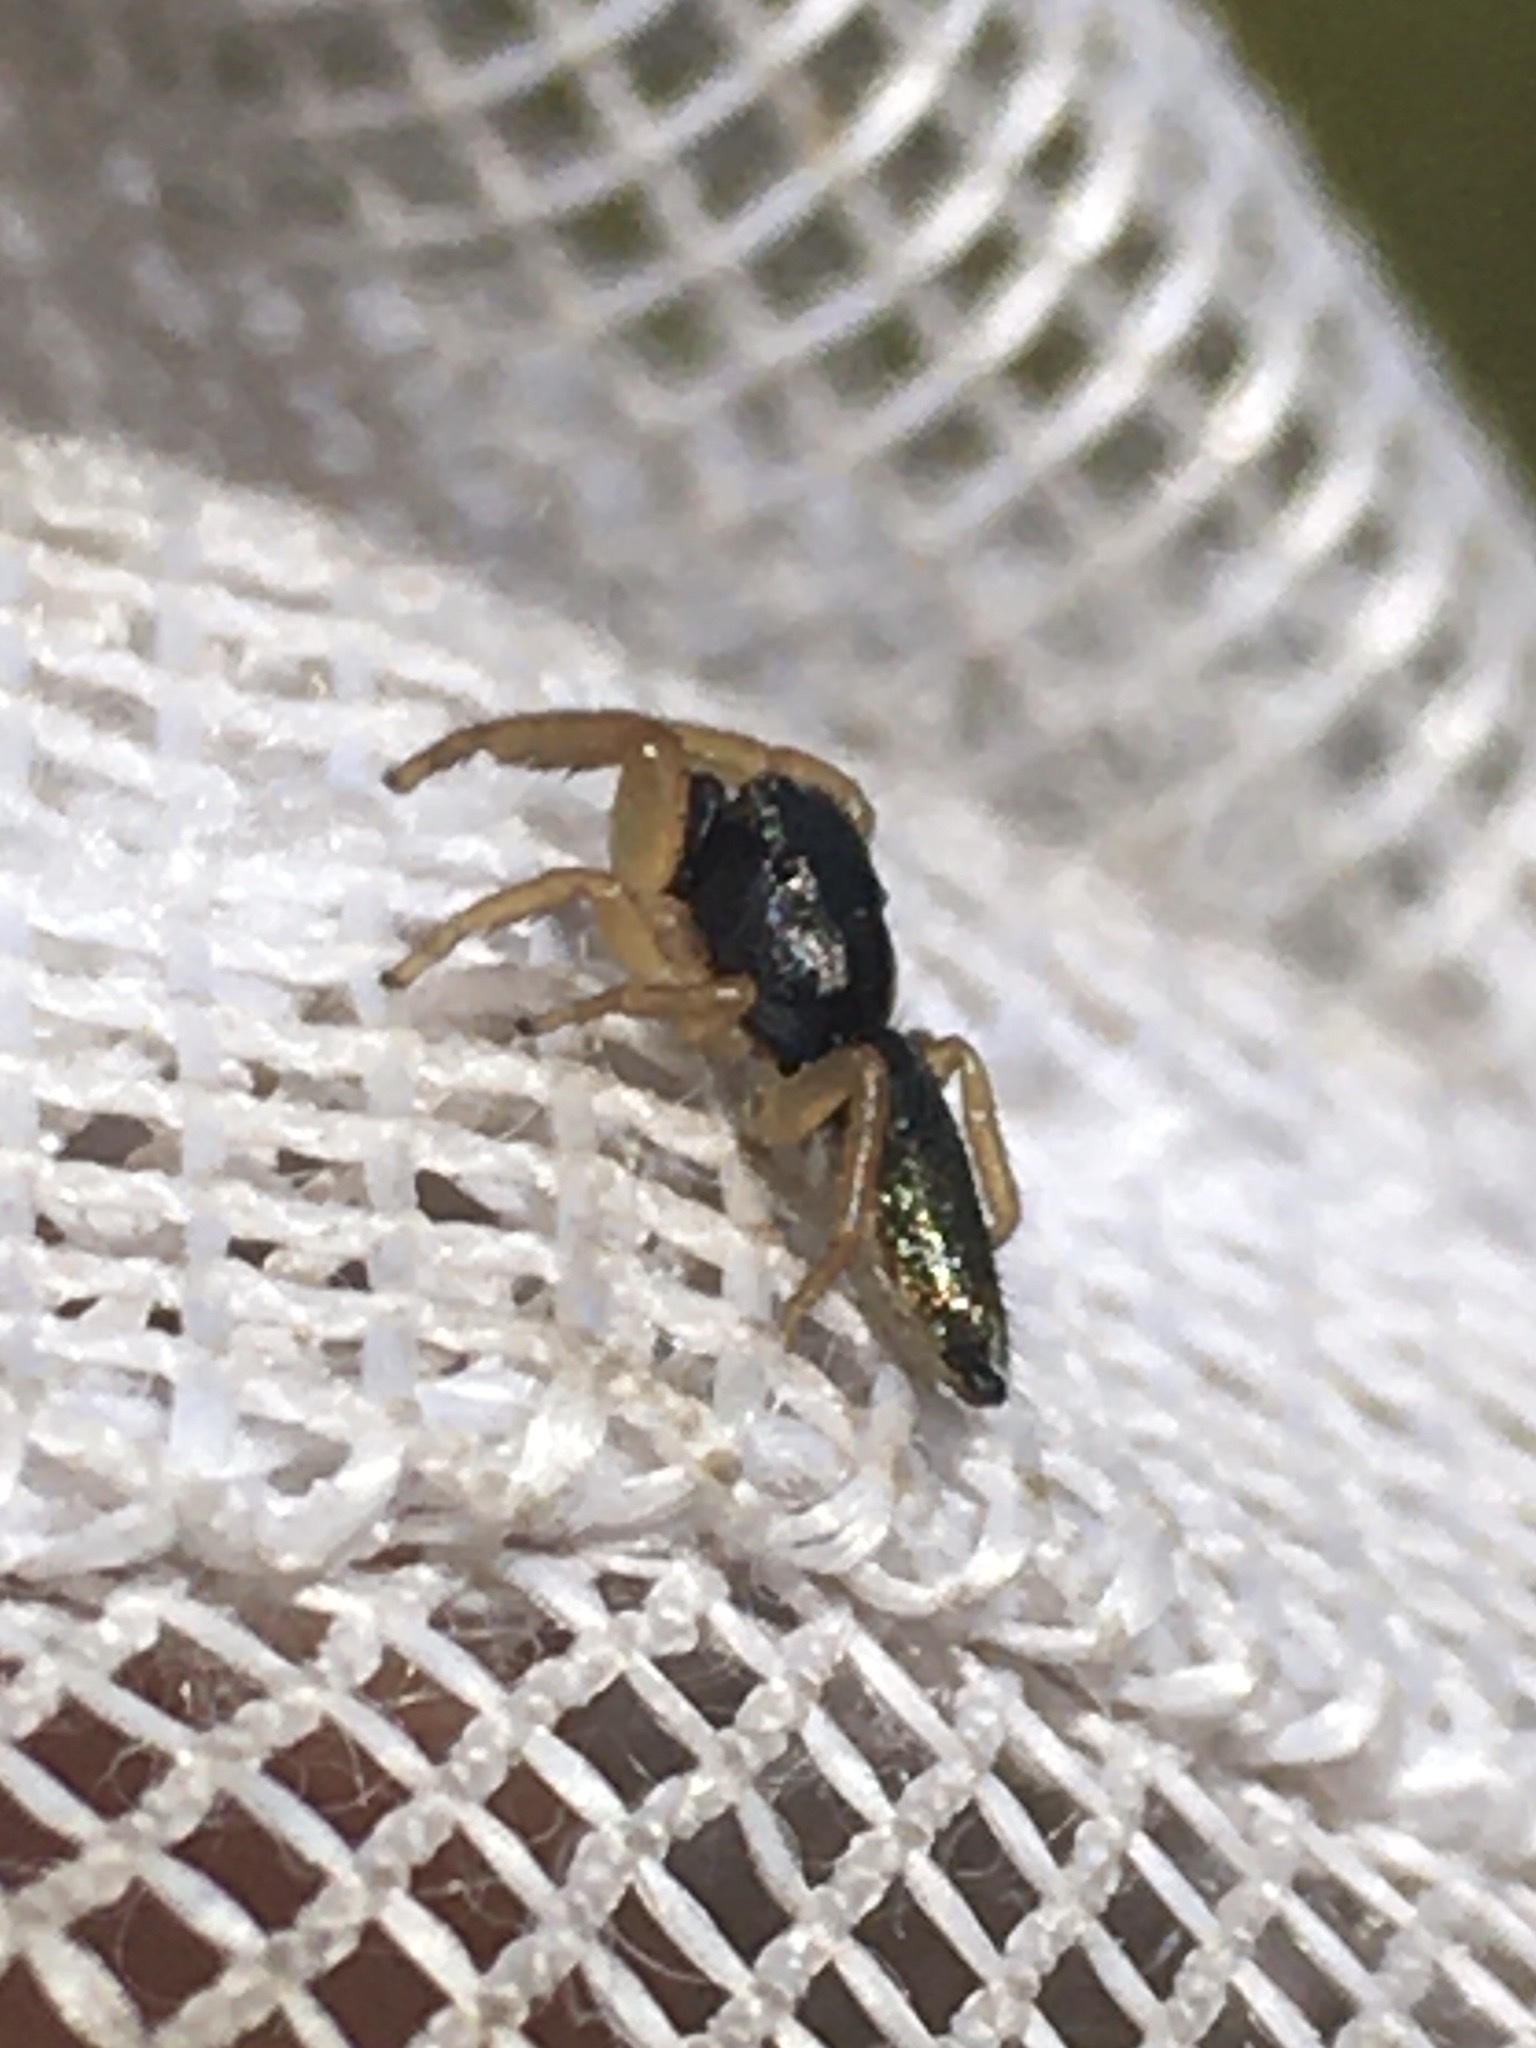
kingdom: Animalia
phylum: Arthropoda
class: Arachnida
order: Araneae
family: Salticidae
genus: Marpissa
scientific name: Marpissa grata
